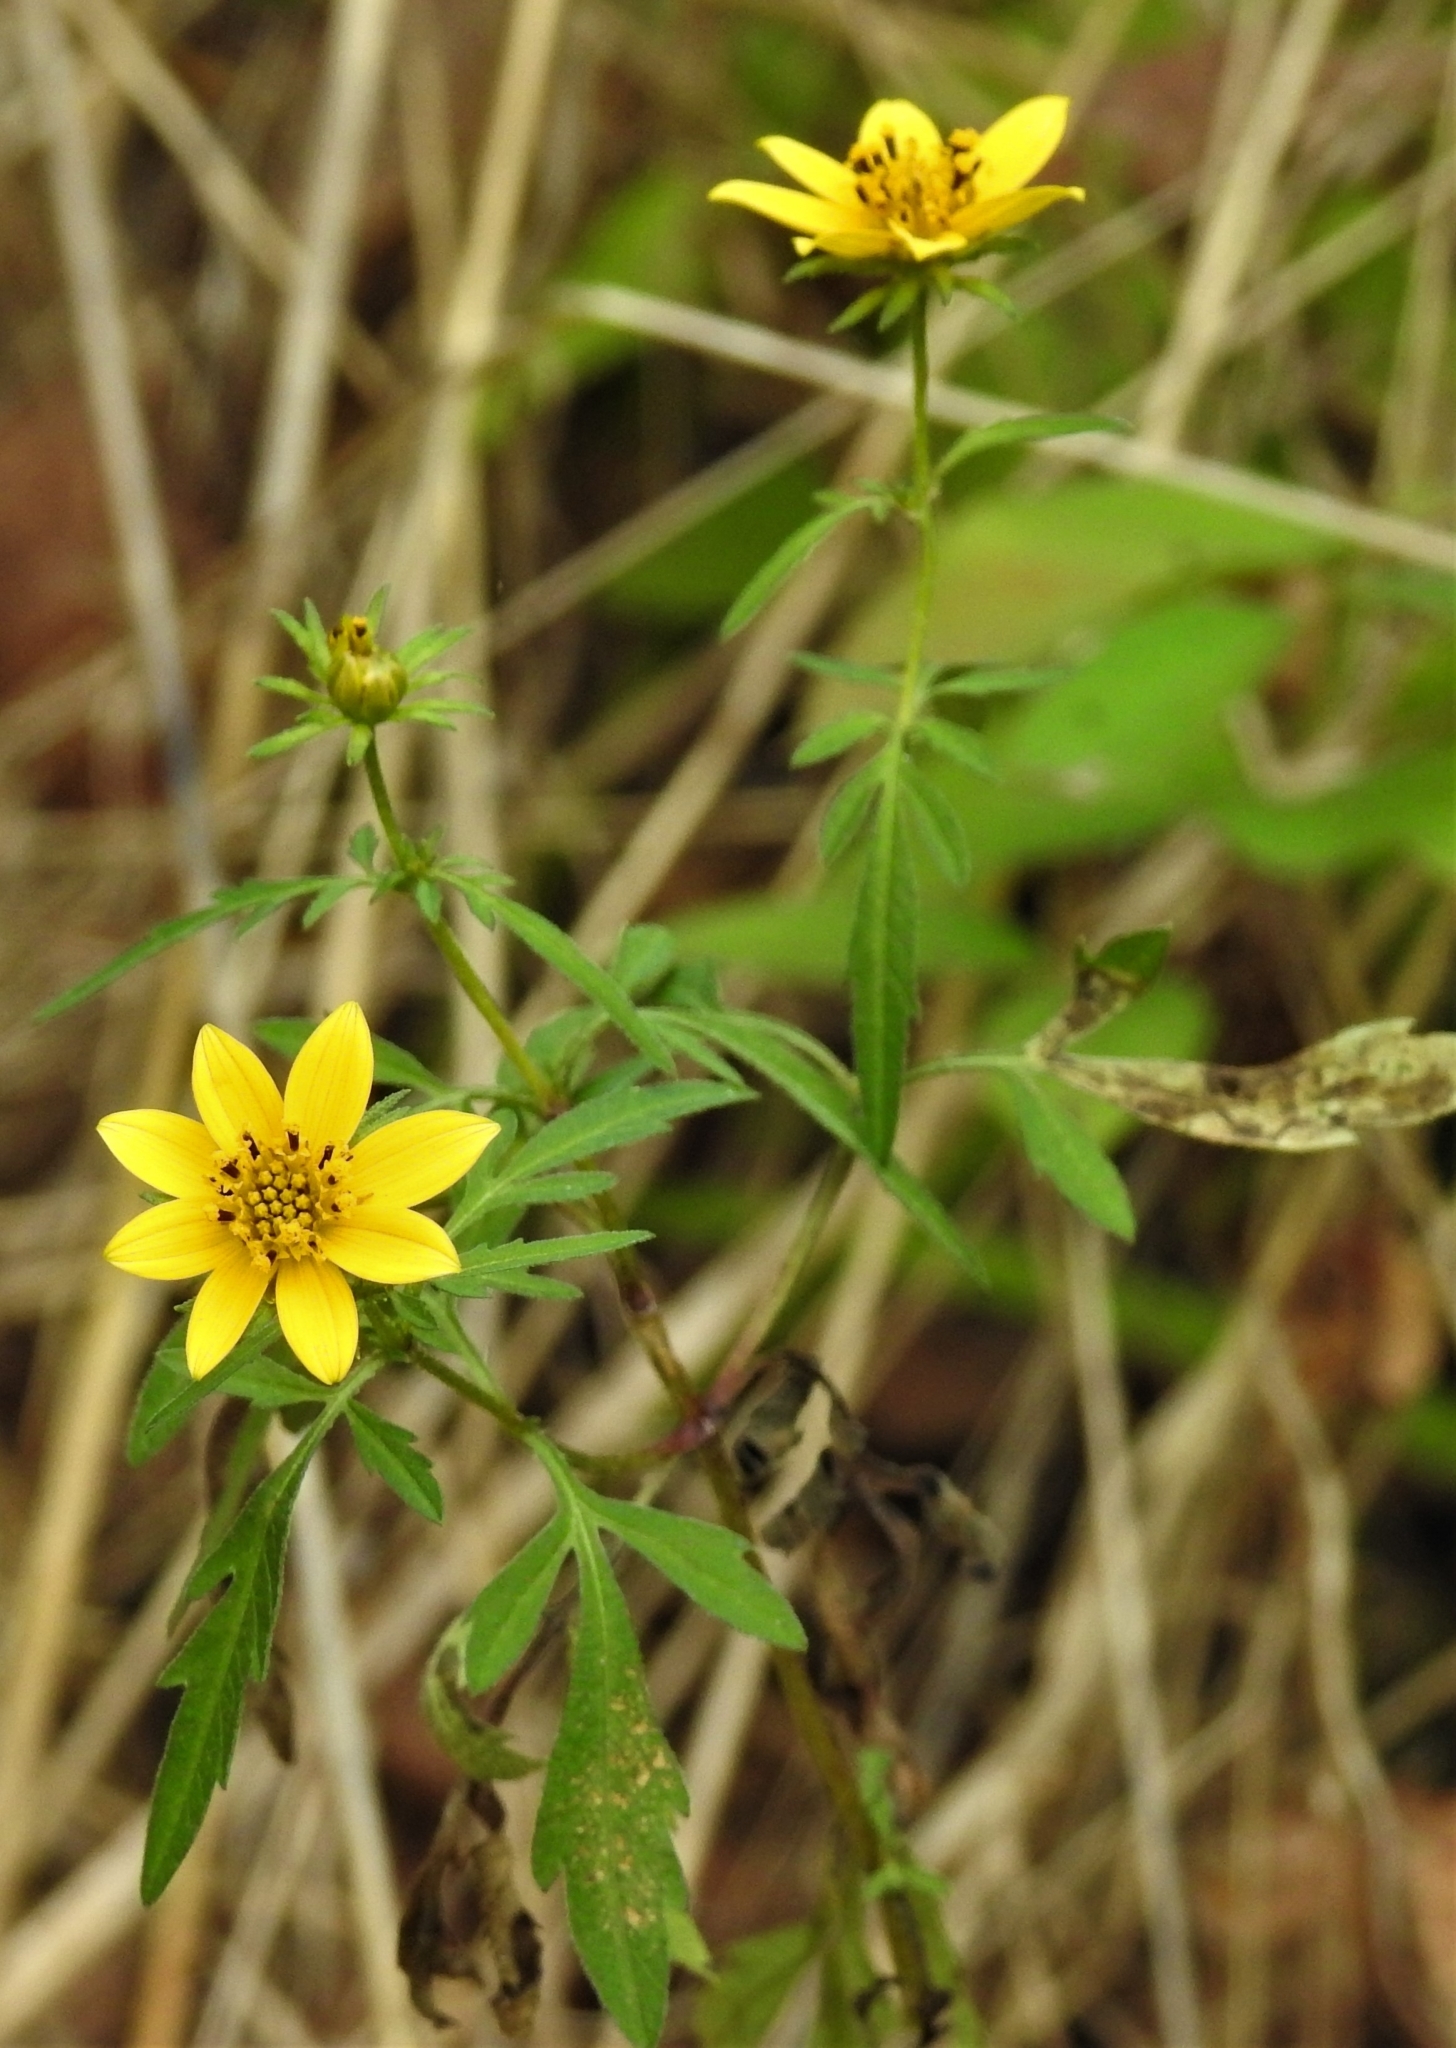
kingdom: Plantae
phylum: Tracheophyta
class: Magnoliopsida
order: Asterales
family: Asteraceae
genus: Bidens
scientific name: Bidens aristosa
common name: Western tickseed
